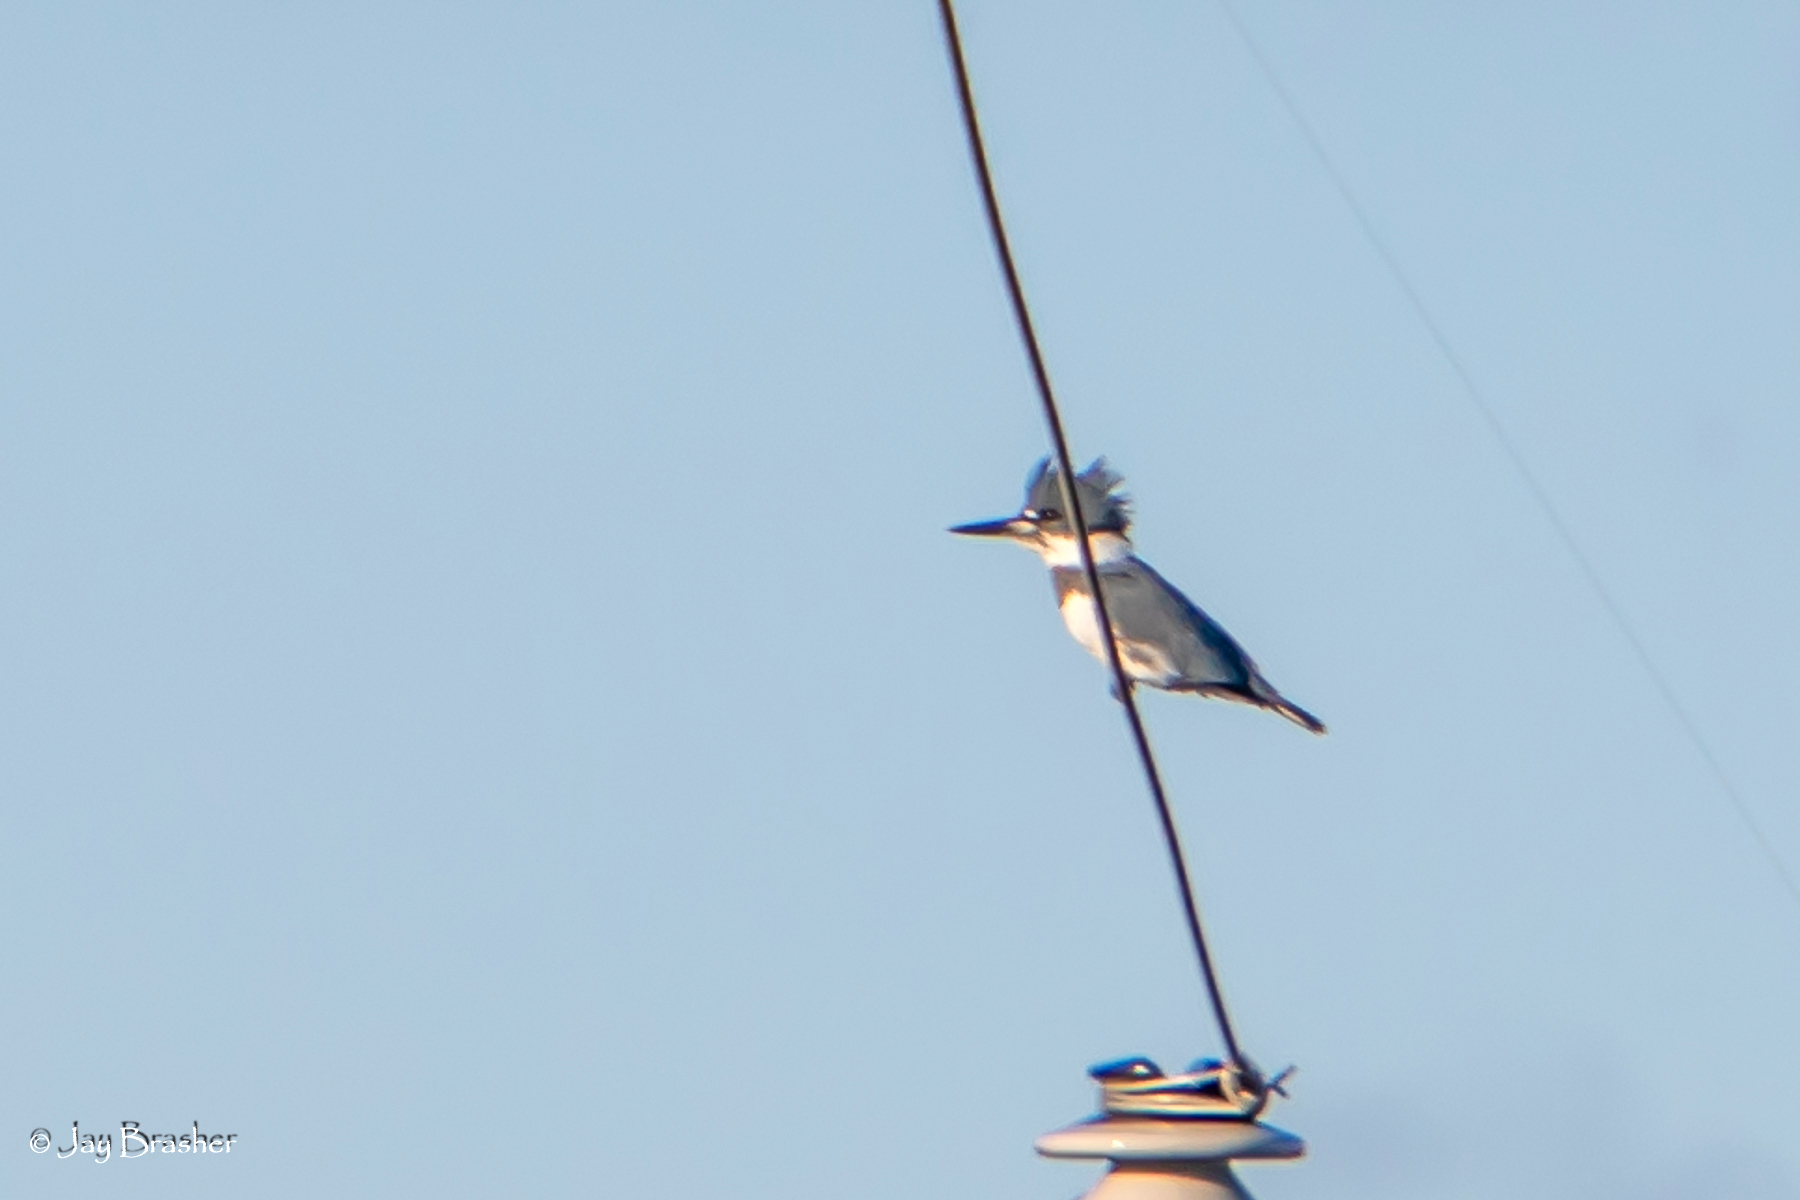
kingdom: Animalia
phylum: Chordata
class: Aves
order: Coraciiformes
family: Alcedinidae
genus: Megaceryle
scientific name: Megaceryle alcyon
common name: Belted kingfisher
